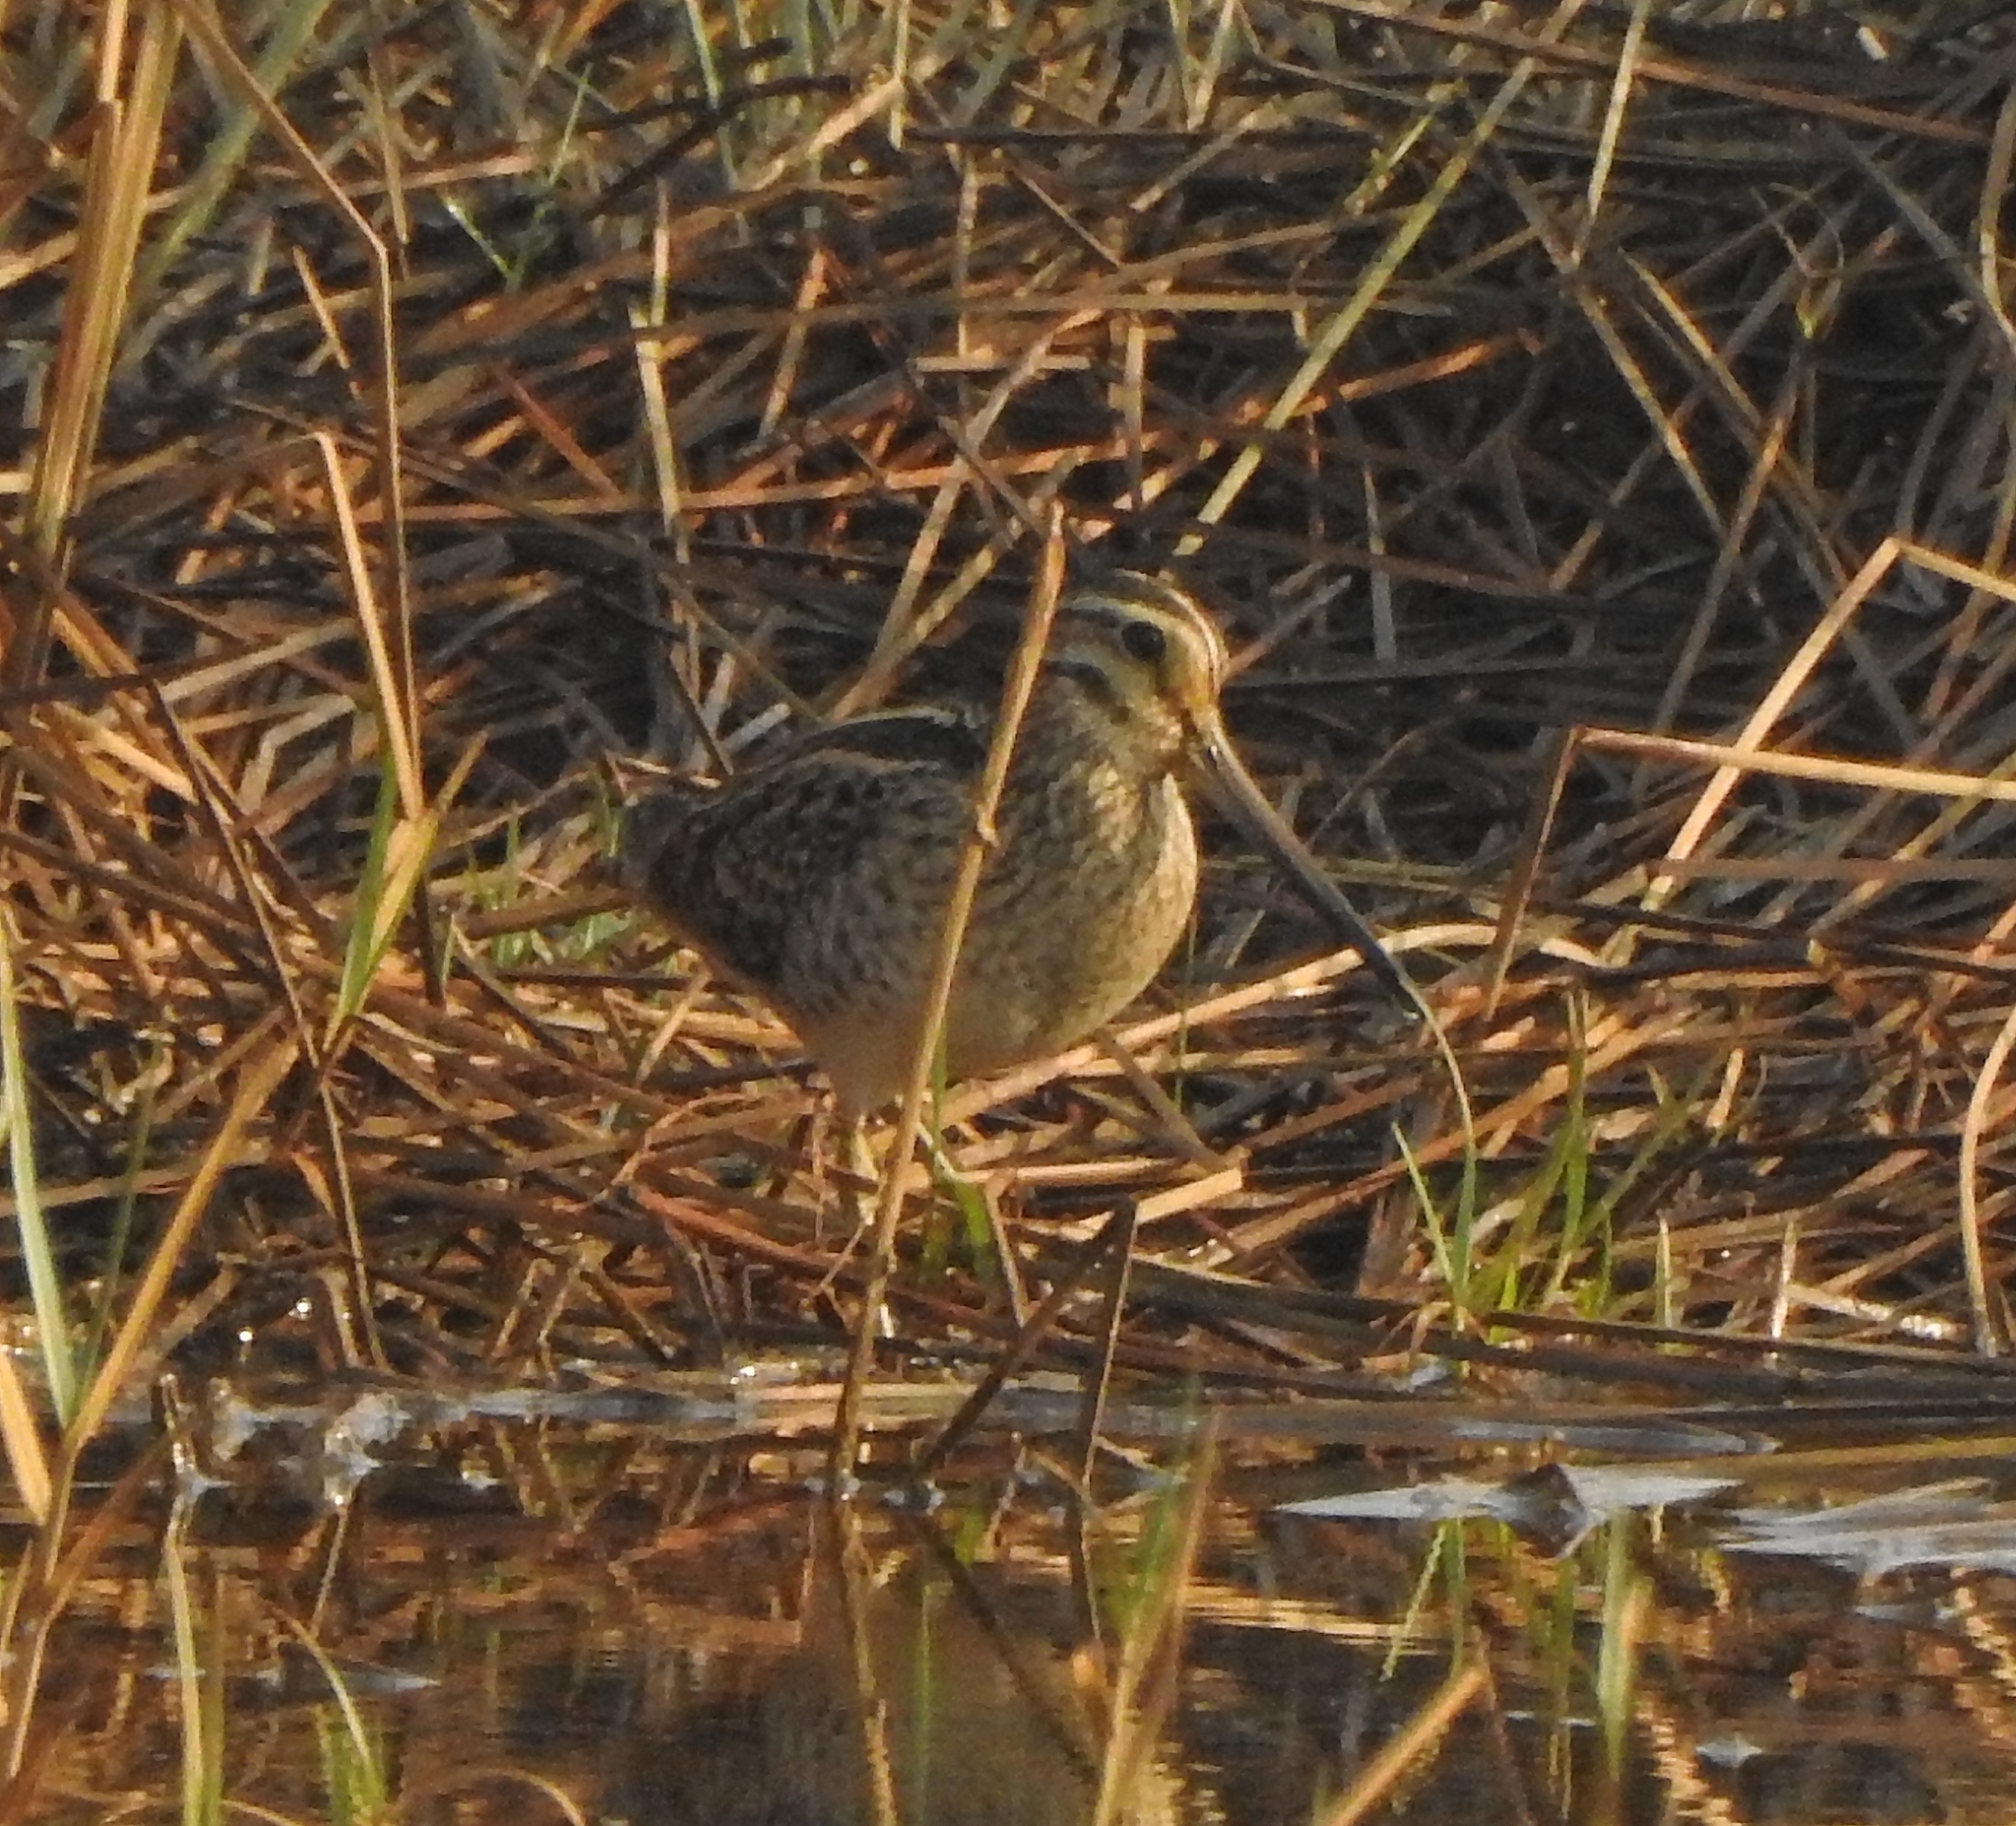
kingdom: Animalia
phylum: Chordata
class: Aves
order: Charadriiformes
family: Scolopacidae
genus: Gallinago
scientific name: Gallinago gallinago
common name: Common snipe
